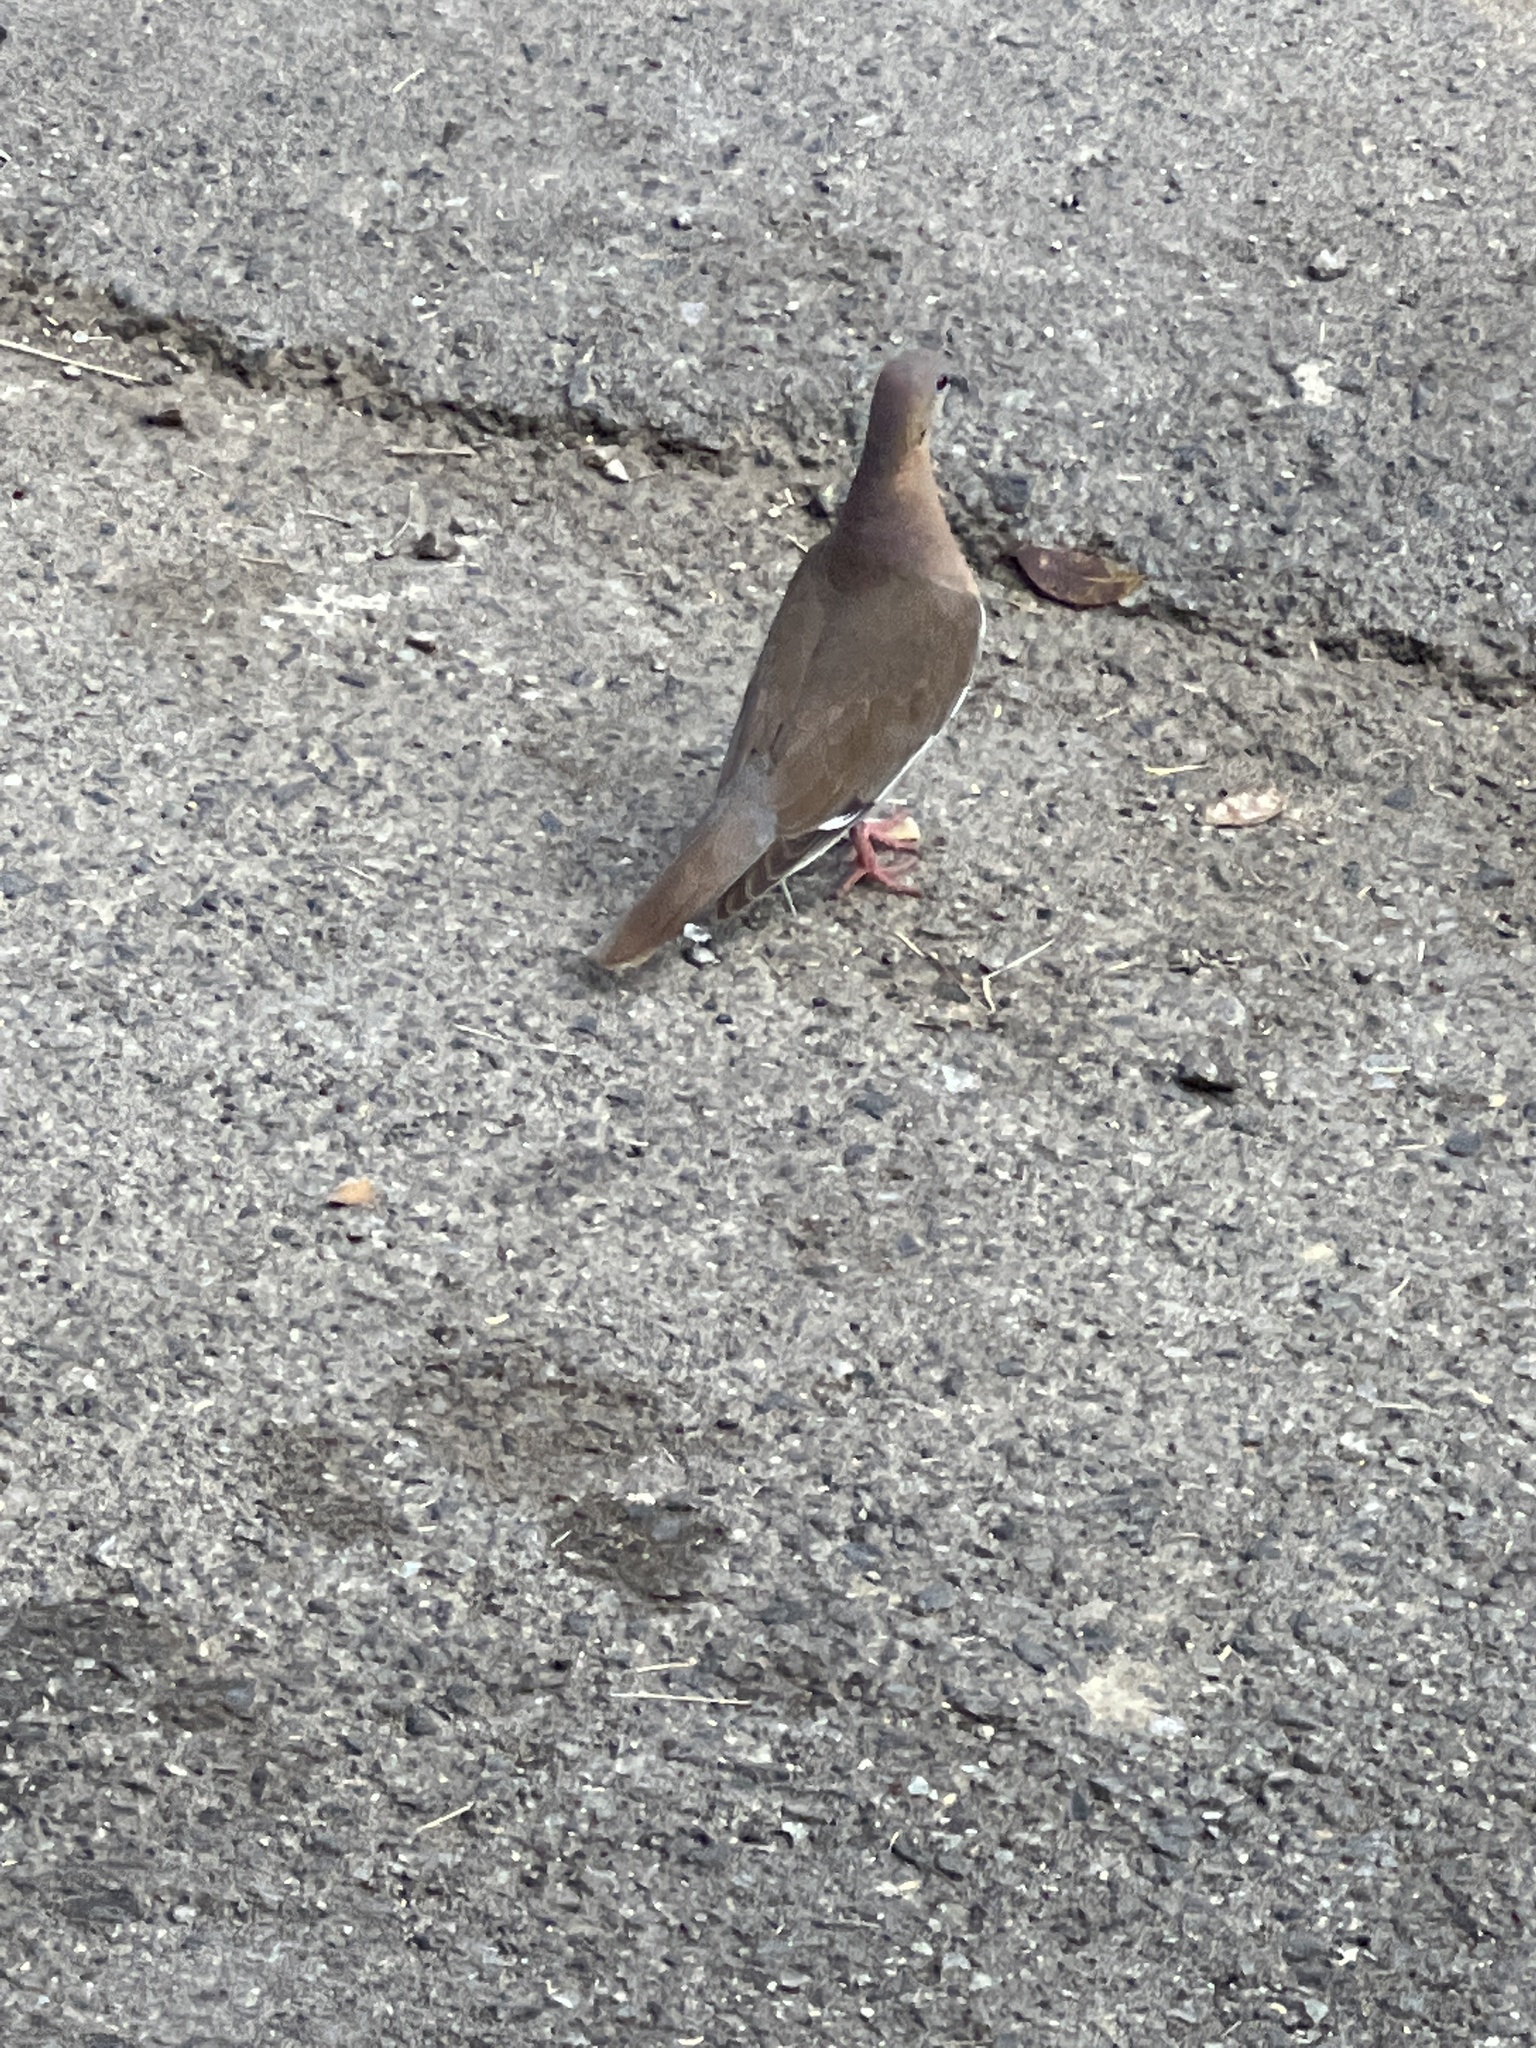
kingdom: Animalia
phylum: Chordata
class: Aves
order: Columbiformes
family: Columbidae
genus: Zenaida
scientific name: Zenaida asiatica
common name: White-winged dove
